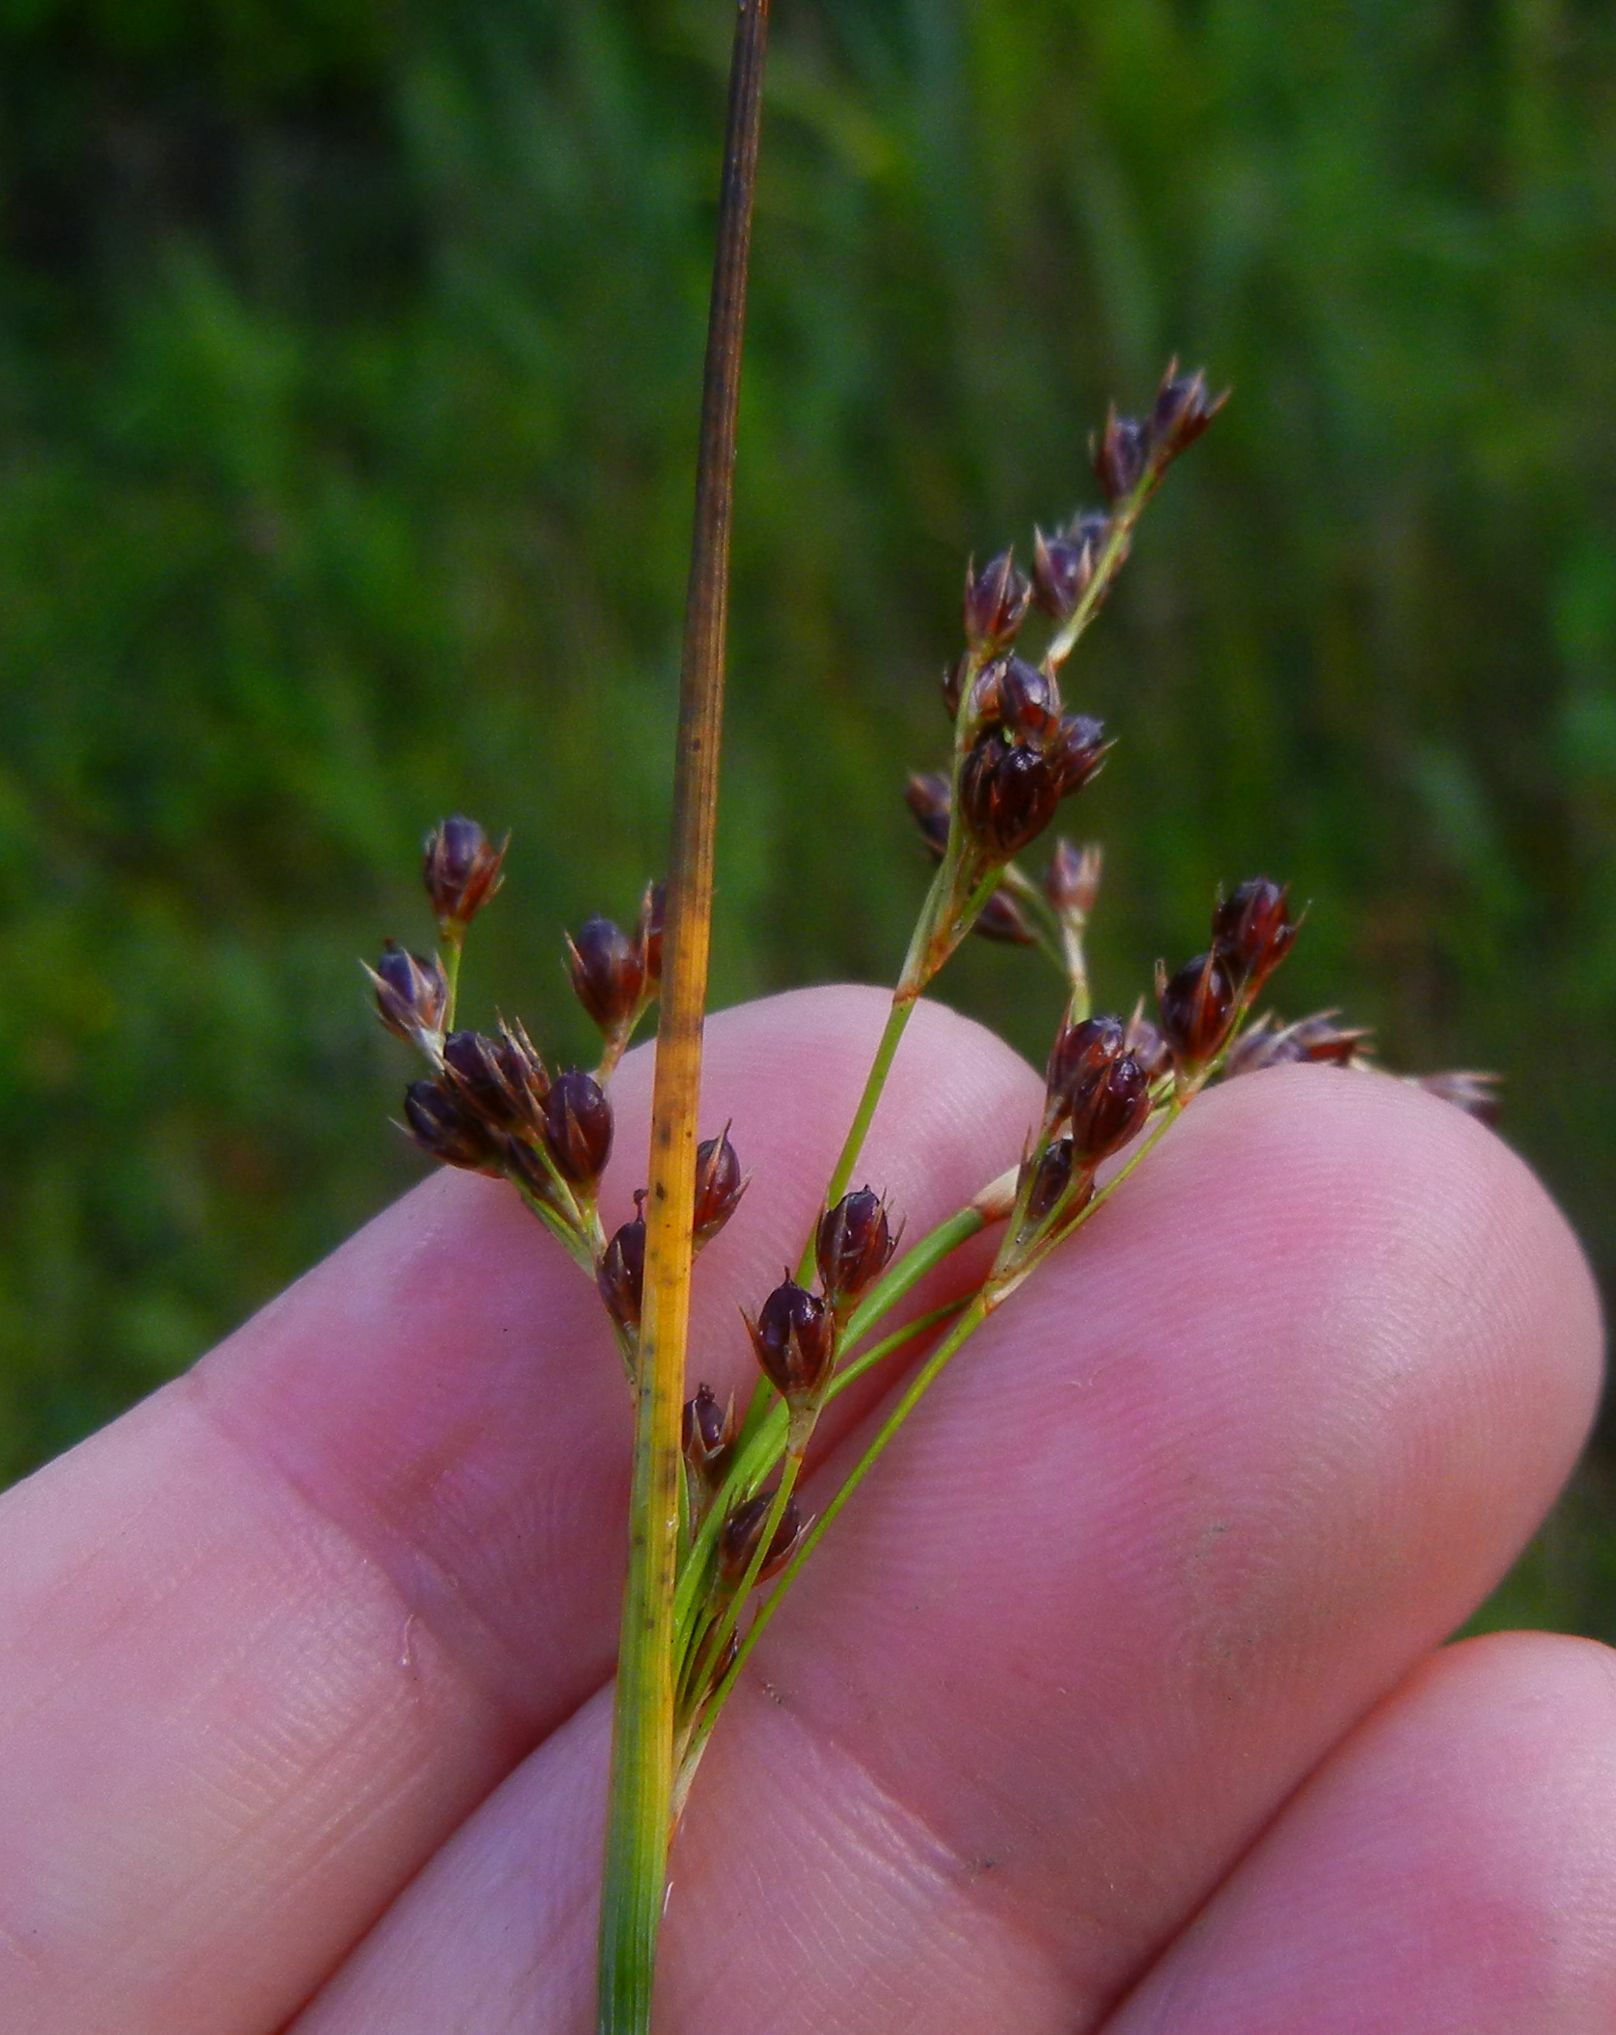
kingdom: Plantae
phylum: Tracheophyta
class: Liliopsida
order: Poales
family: Juncaceae
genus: Juncus
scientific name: Juncus inflexus
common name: Hard rush
